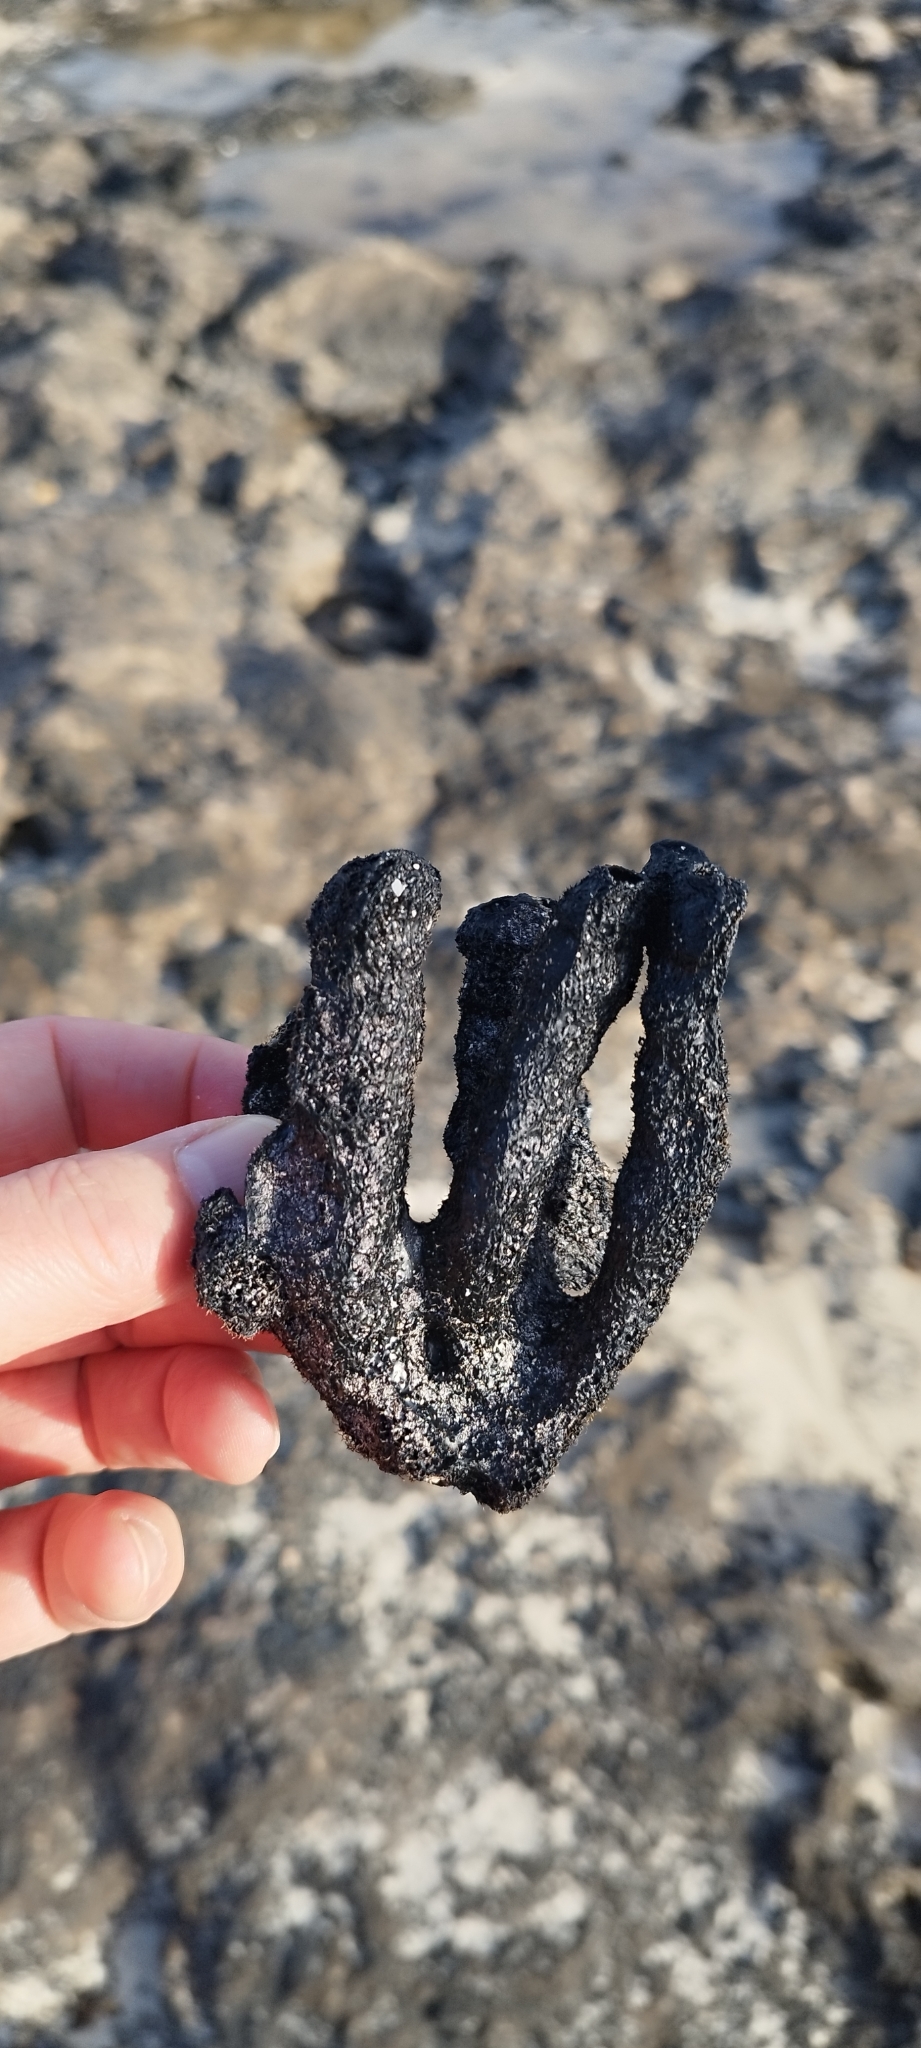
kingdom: Animalia
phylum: Porifera
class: Demospongiae
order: Verongiida
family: Aplysinidae
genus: Aplysina
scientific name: Aplysina aerophoba
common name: Aureate sponge
